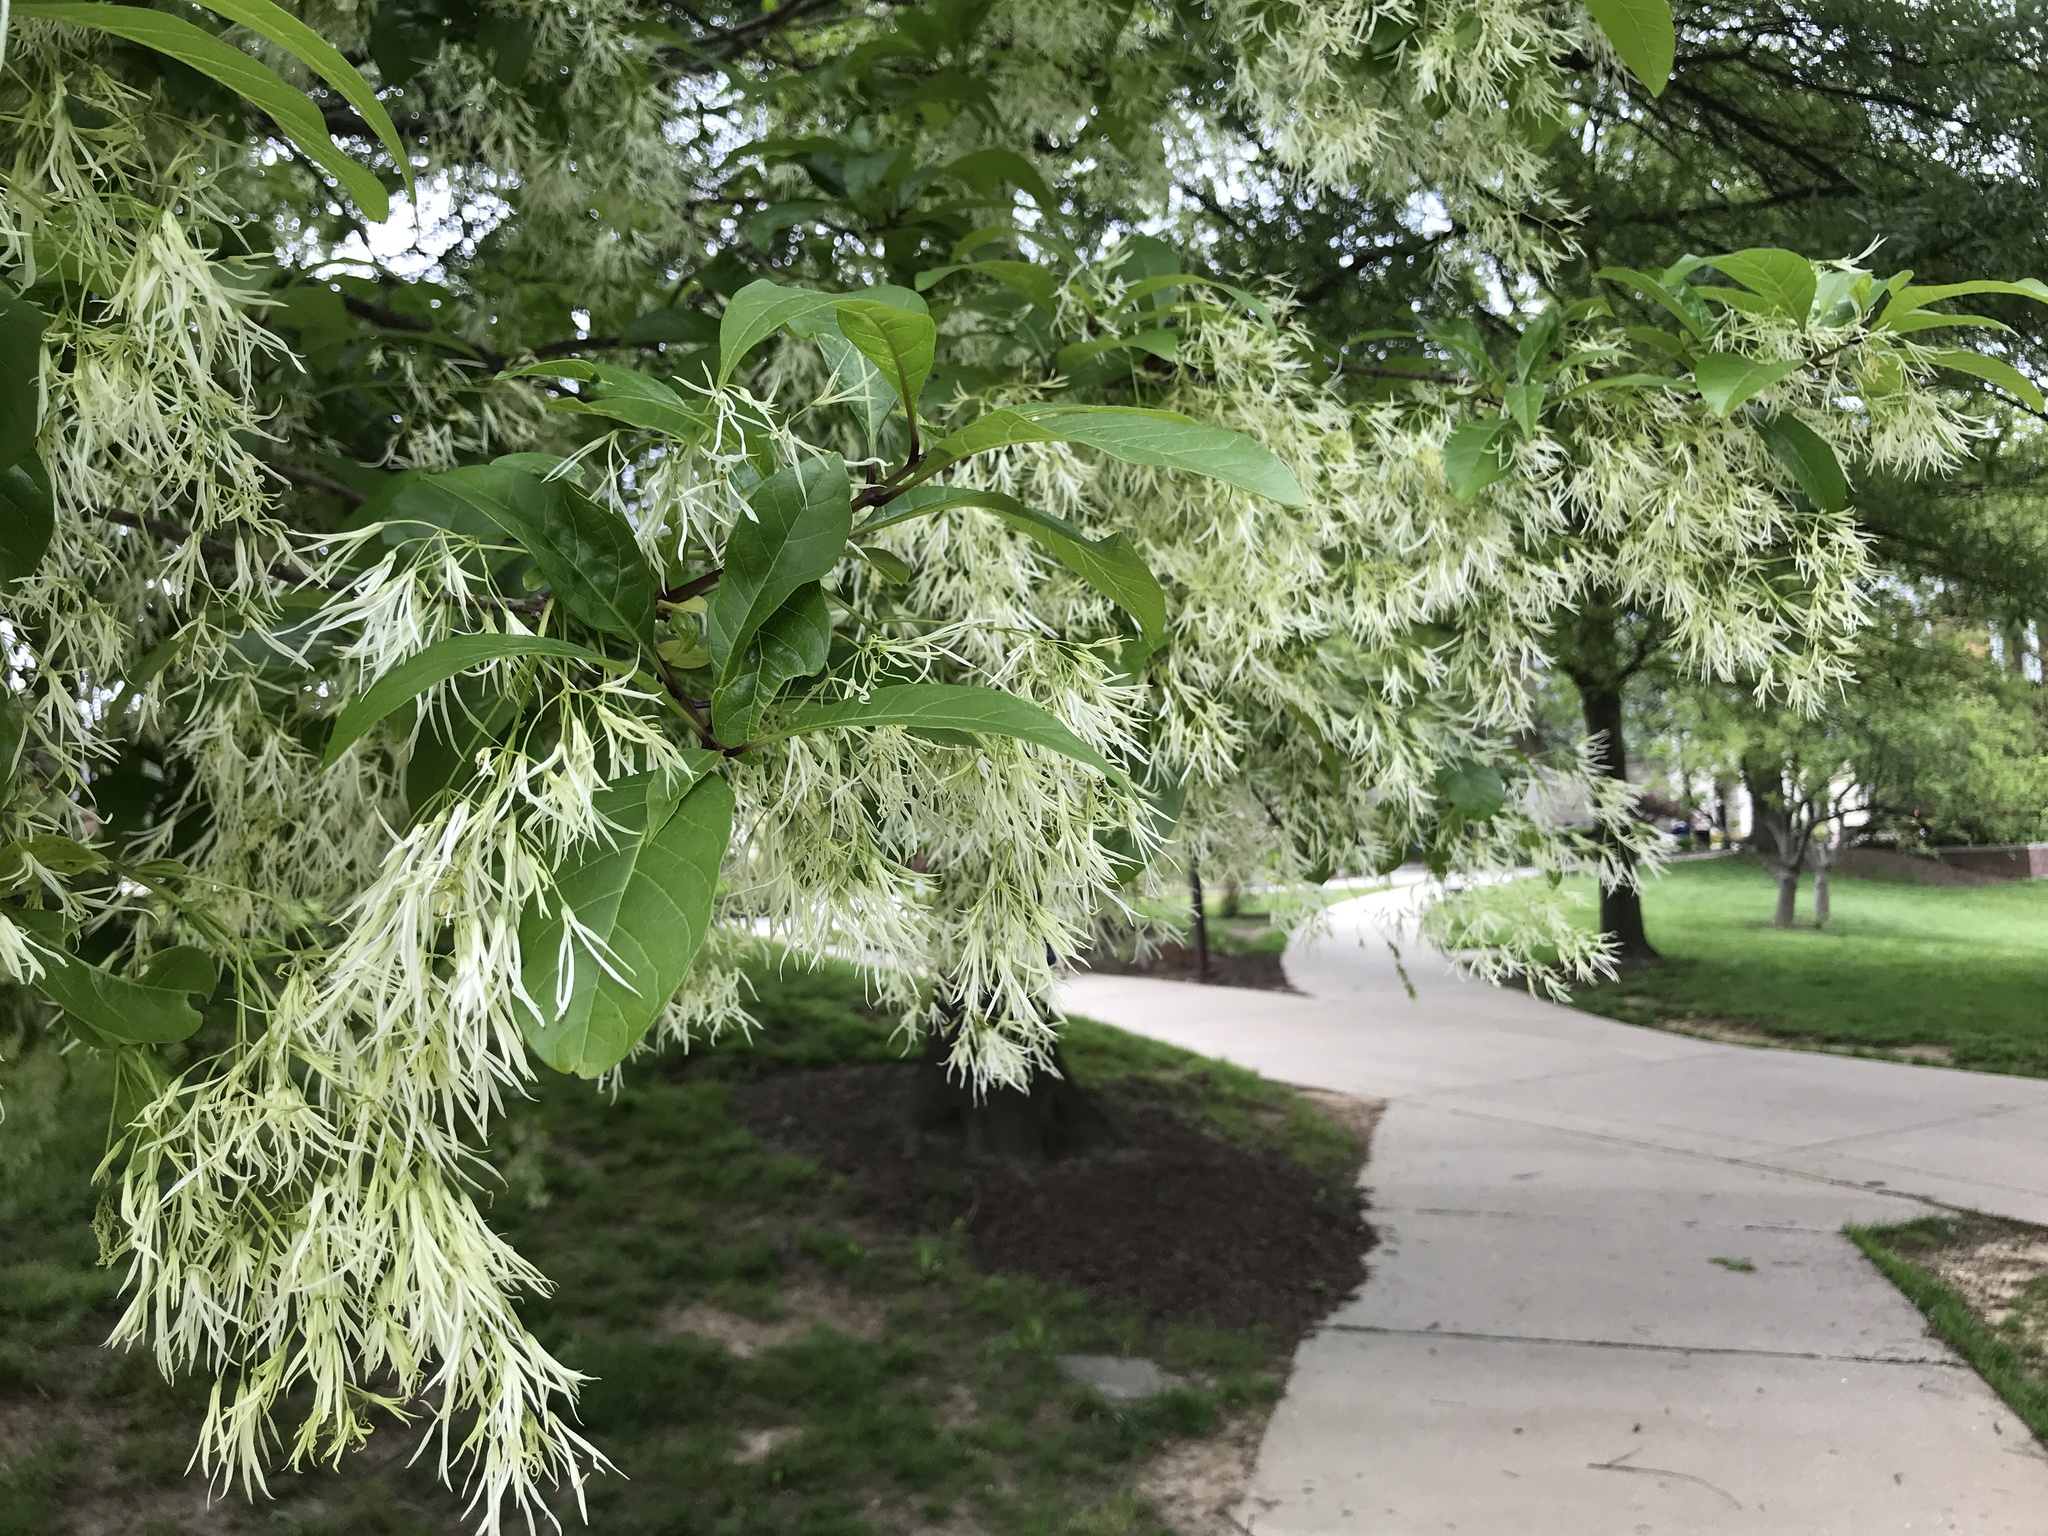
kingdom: Plantae
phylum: Tracheophyta
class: Magnoliopsida
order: Lamiales
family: Oleaceae
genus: Chionanthus
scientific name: Chionanthus virginicus
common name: American fringetree
